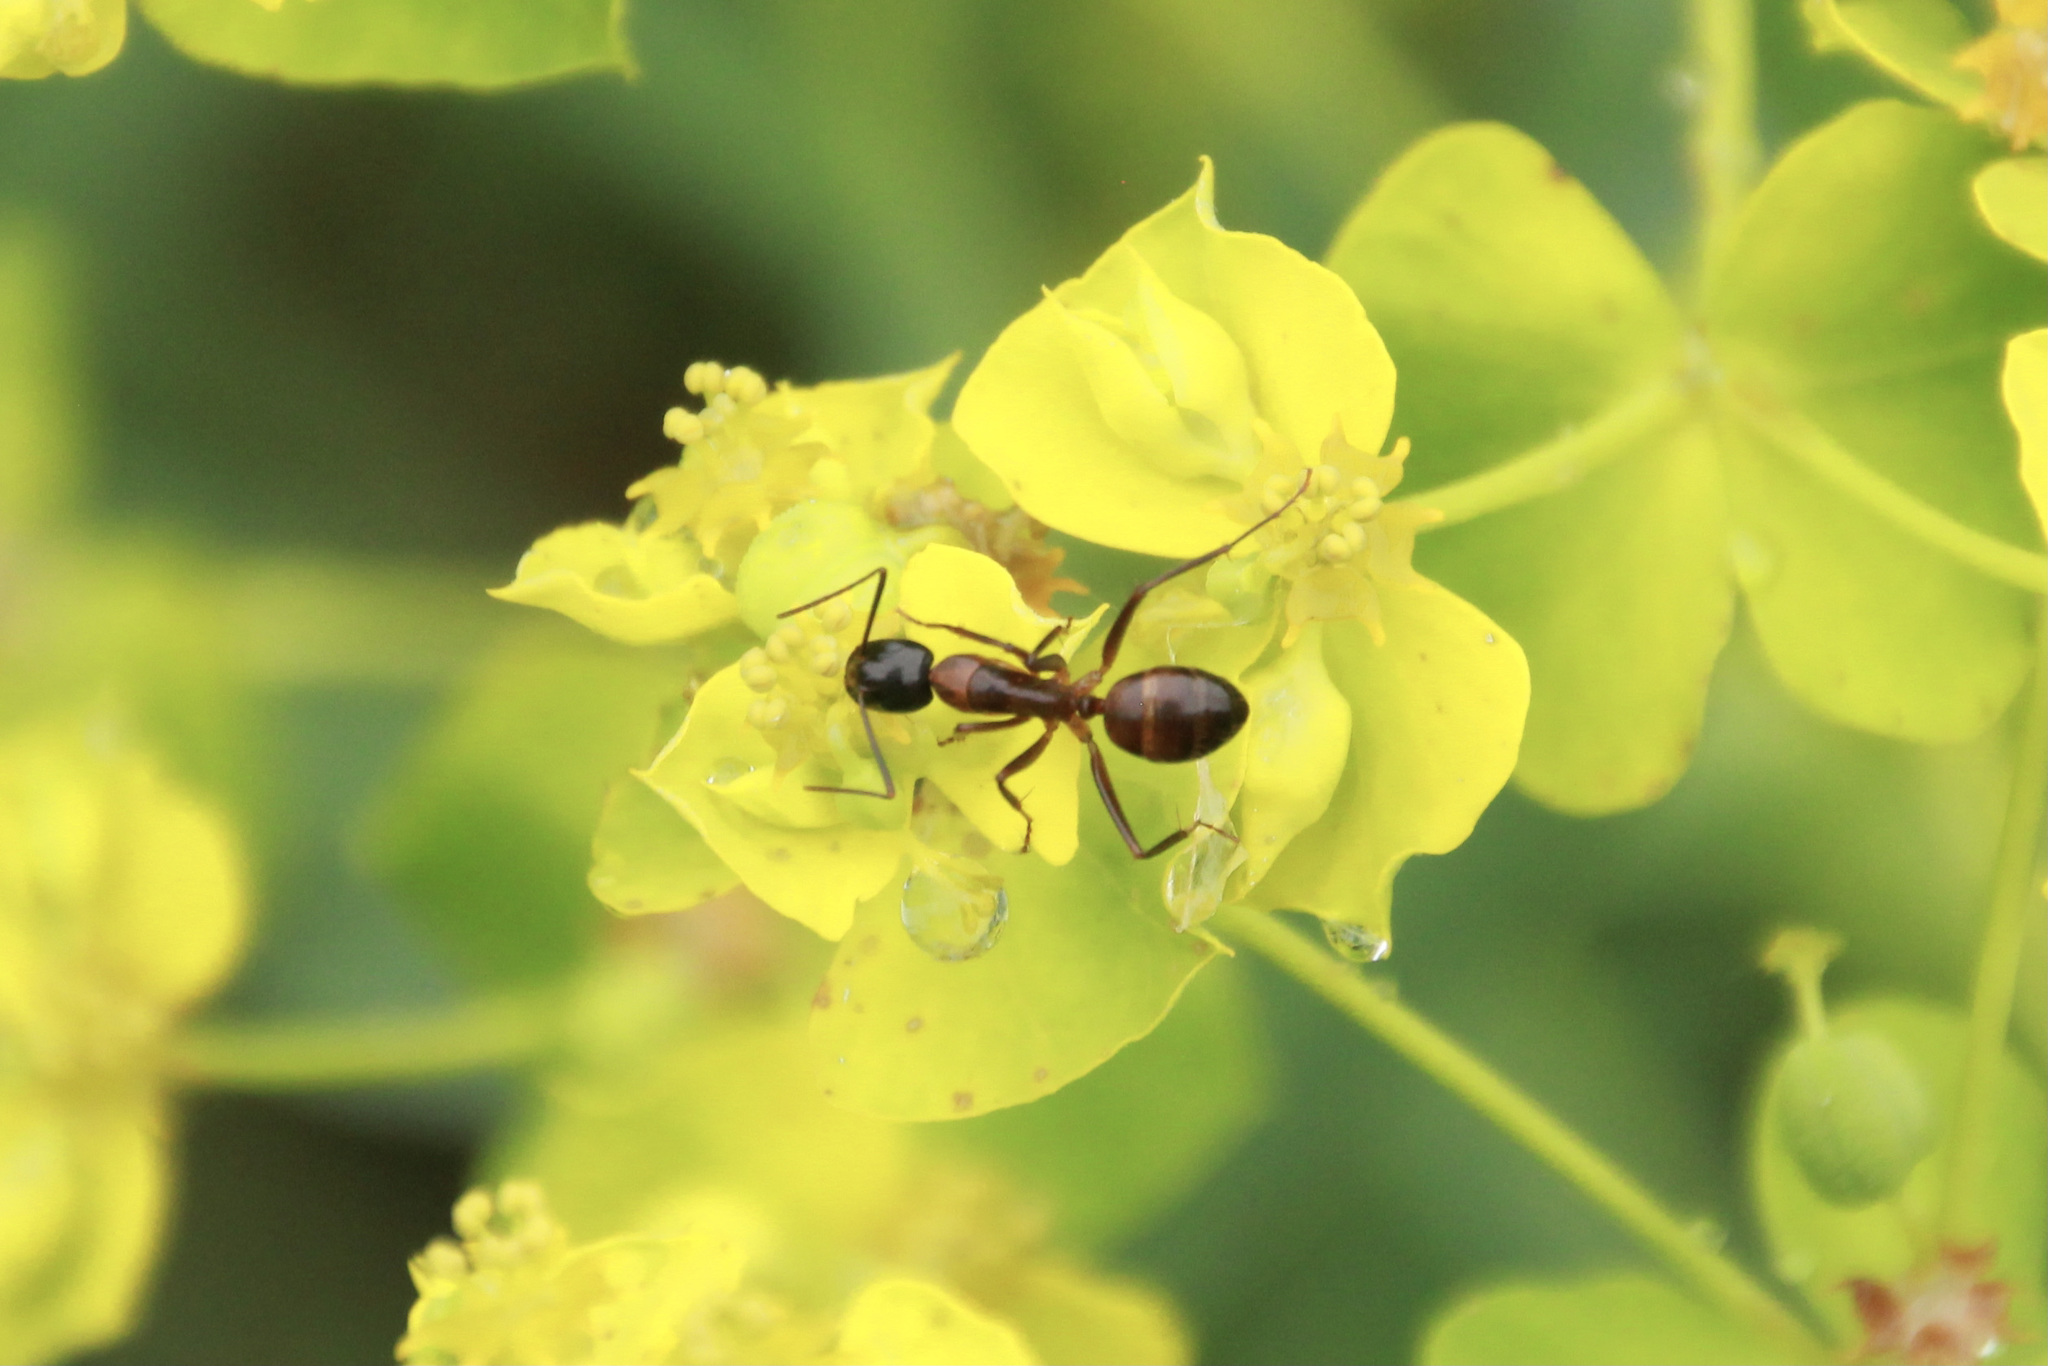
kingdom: Animalia
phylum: Arthropoda
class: Insecta
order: Hymenoptera
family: Formicidae
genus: Camponotus
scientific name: Camponotus americanus
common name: American carpenter ant
